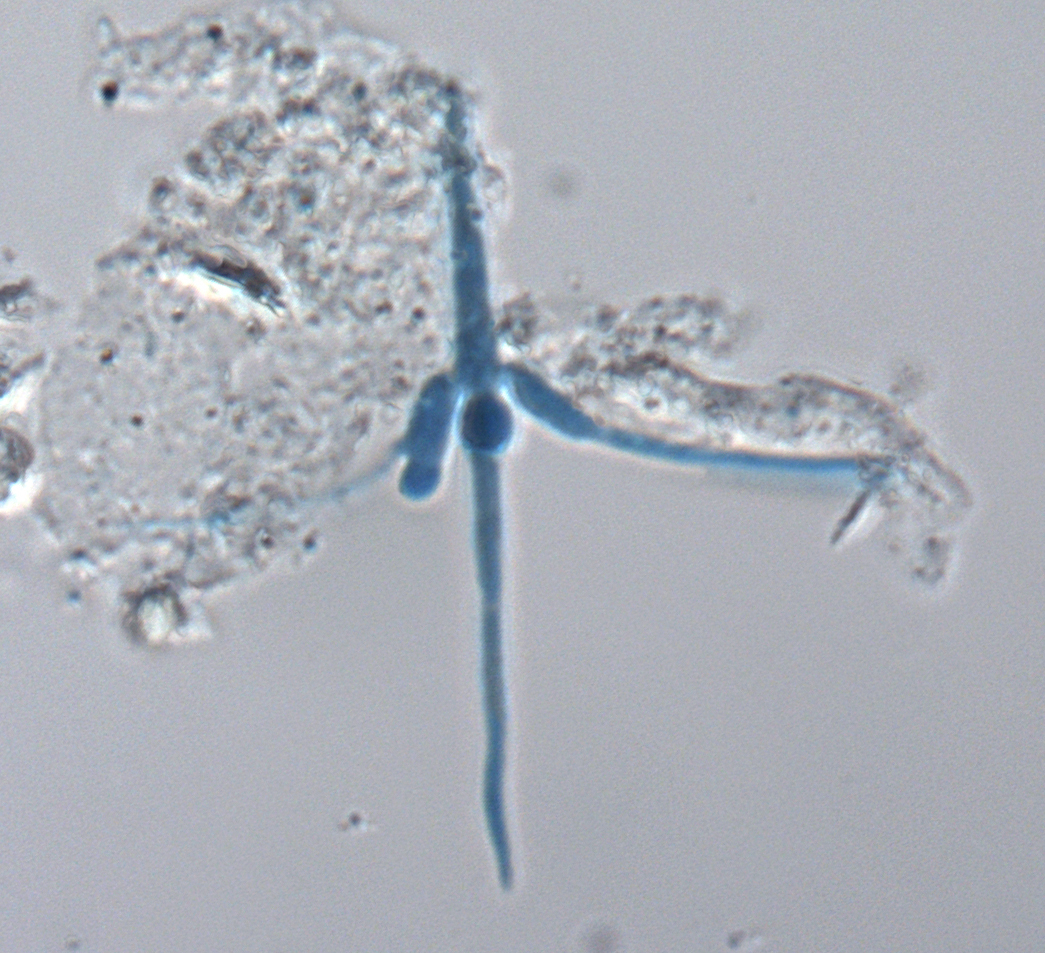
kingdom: Fungi
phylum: Ascomycota
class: Leotiomycetes
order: Helotiales
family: Helotiaceae
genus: Tetracladium
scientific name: Tetracladium marchalianum
